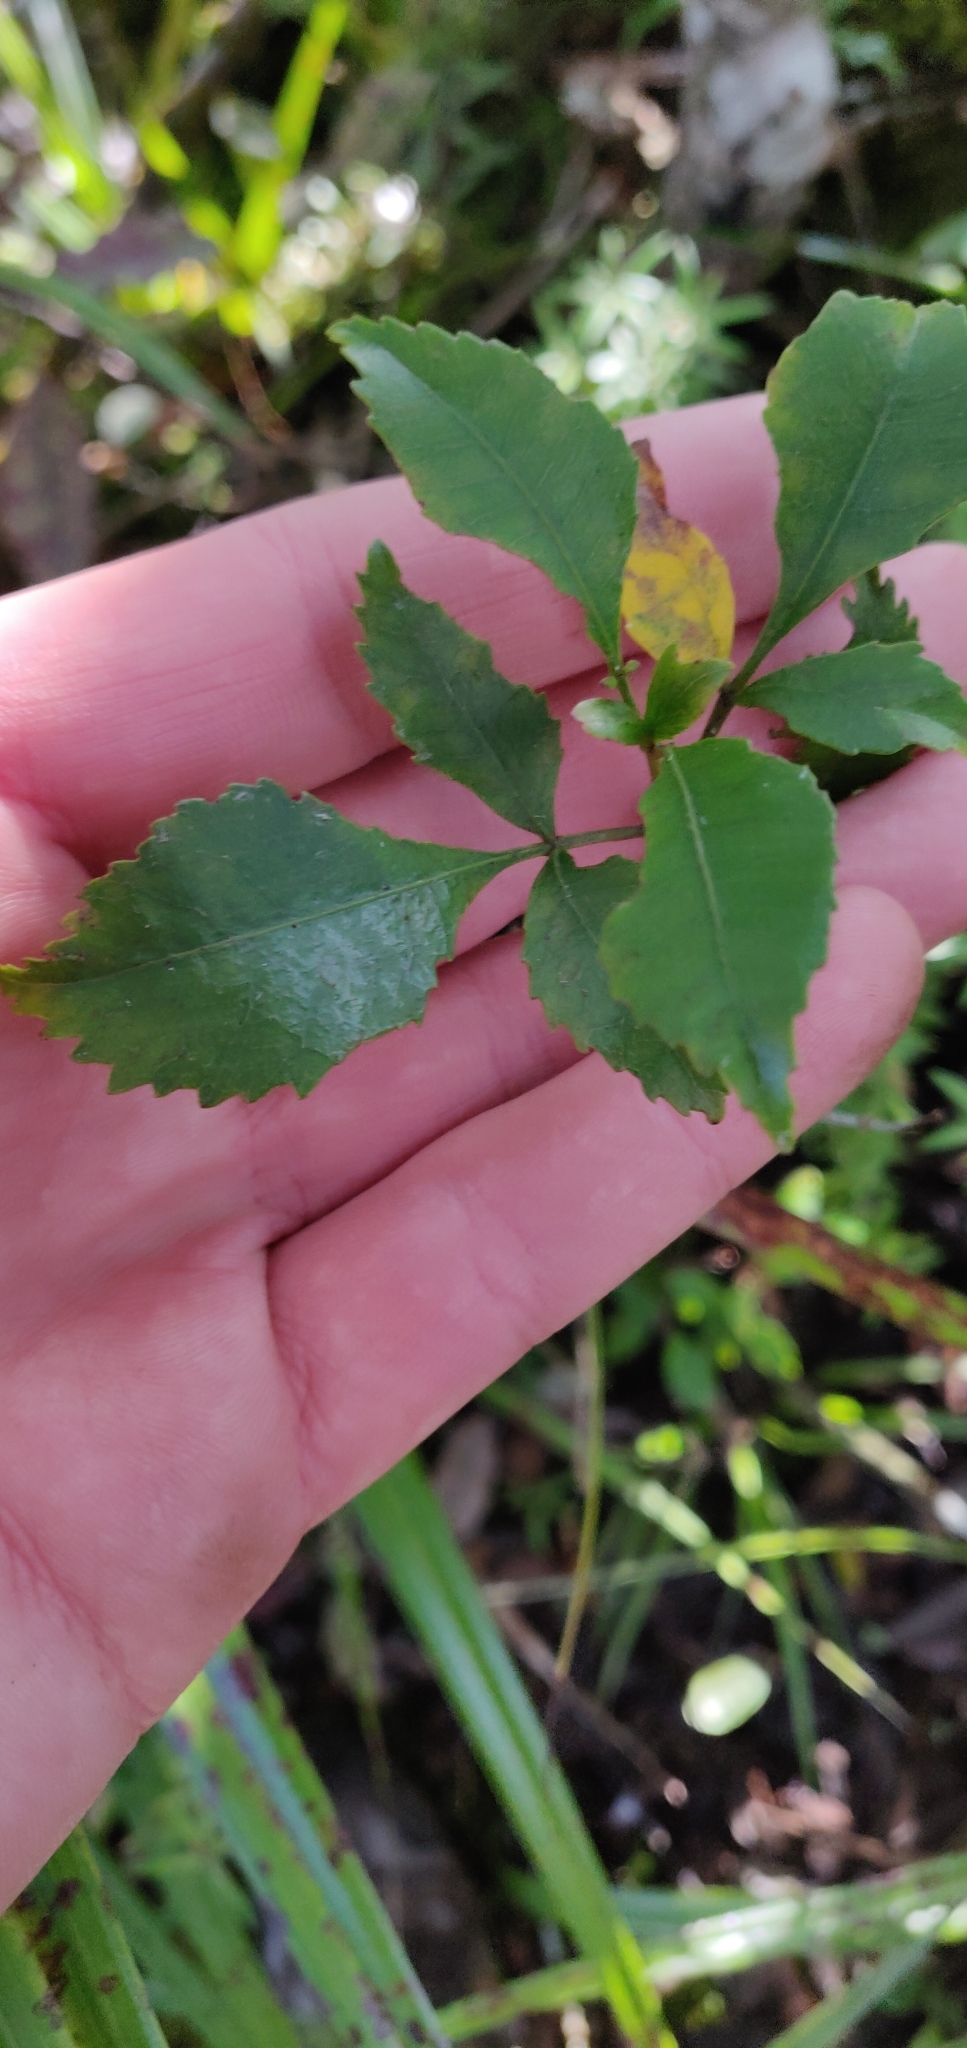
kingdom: Plantae
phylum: Tracheophyta
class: Magnoliopsida
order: Oxalidales
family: Cunoniaceae
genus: Pterophylla
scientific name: Pterophylla racemosa
